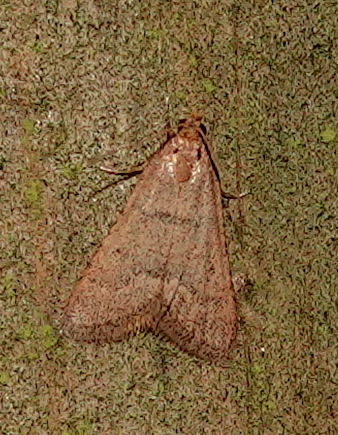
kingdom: Animalia
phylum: Arthropoda
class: Insecta
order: Lepidoptera
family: Pyralidae
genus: Bostra
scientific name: Bostra obsoletalis
